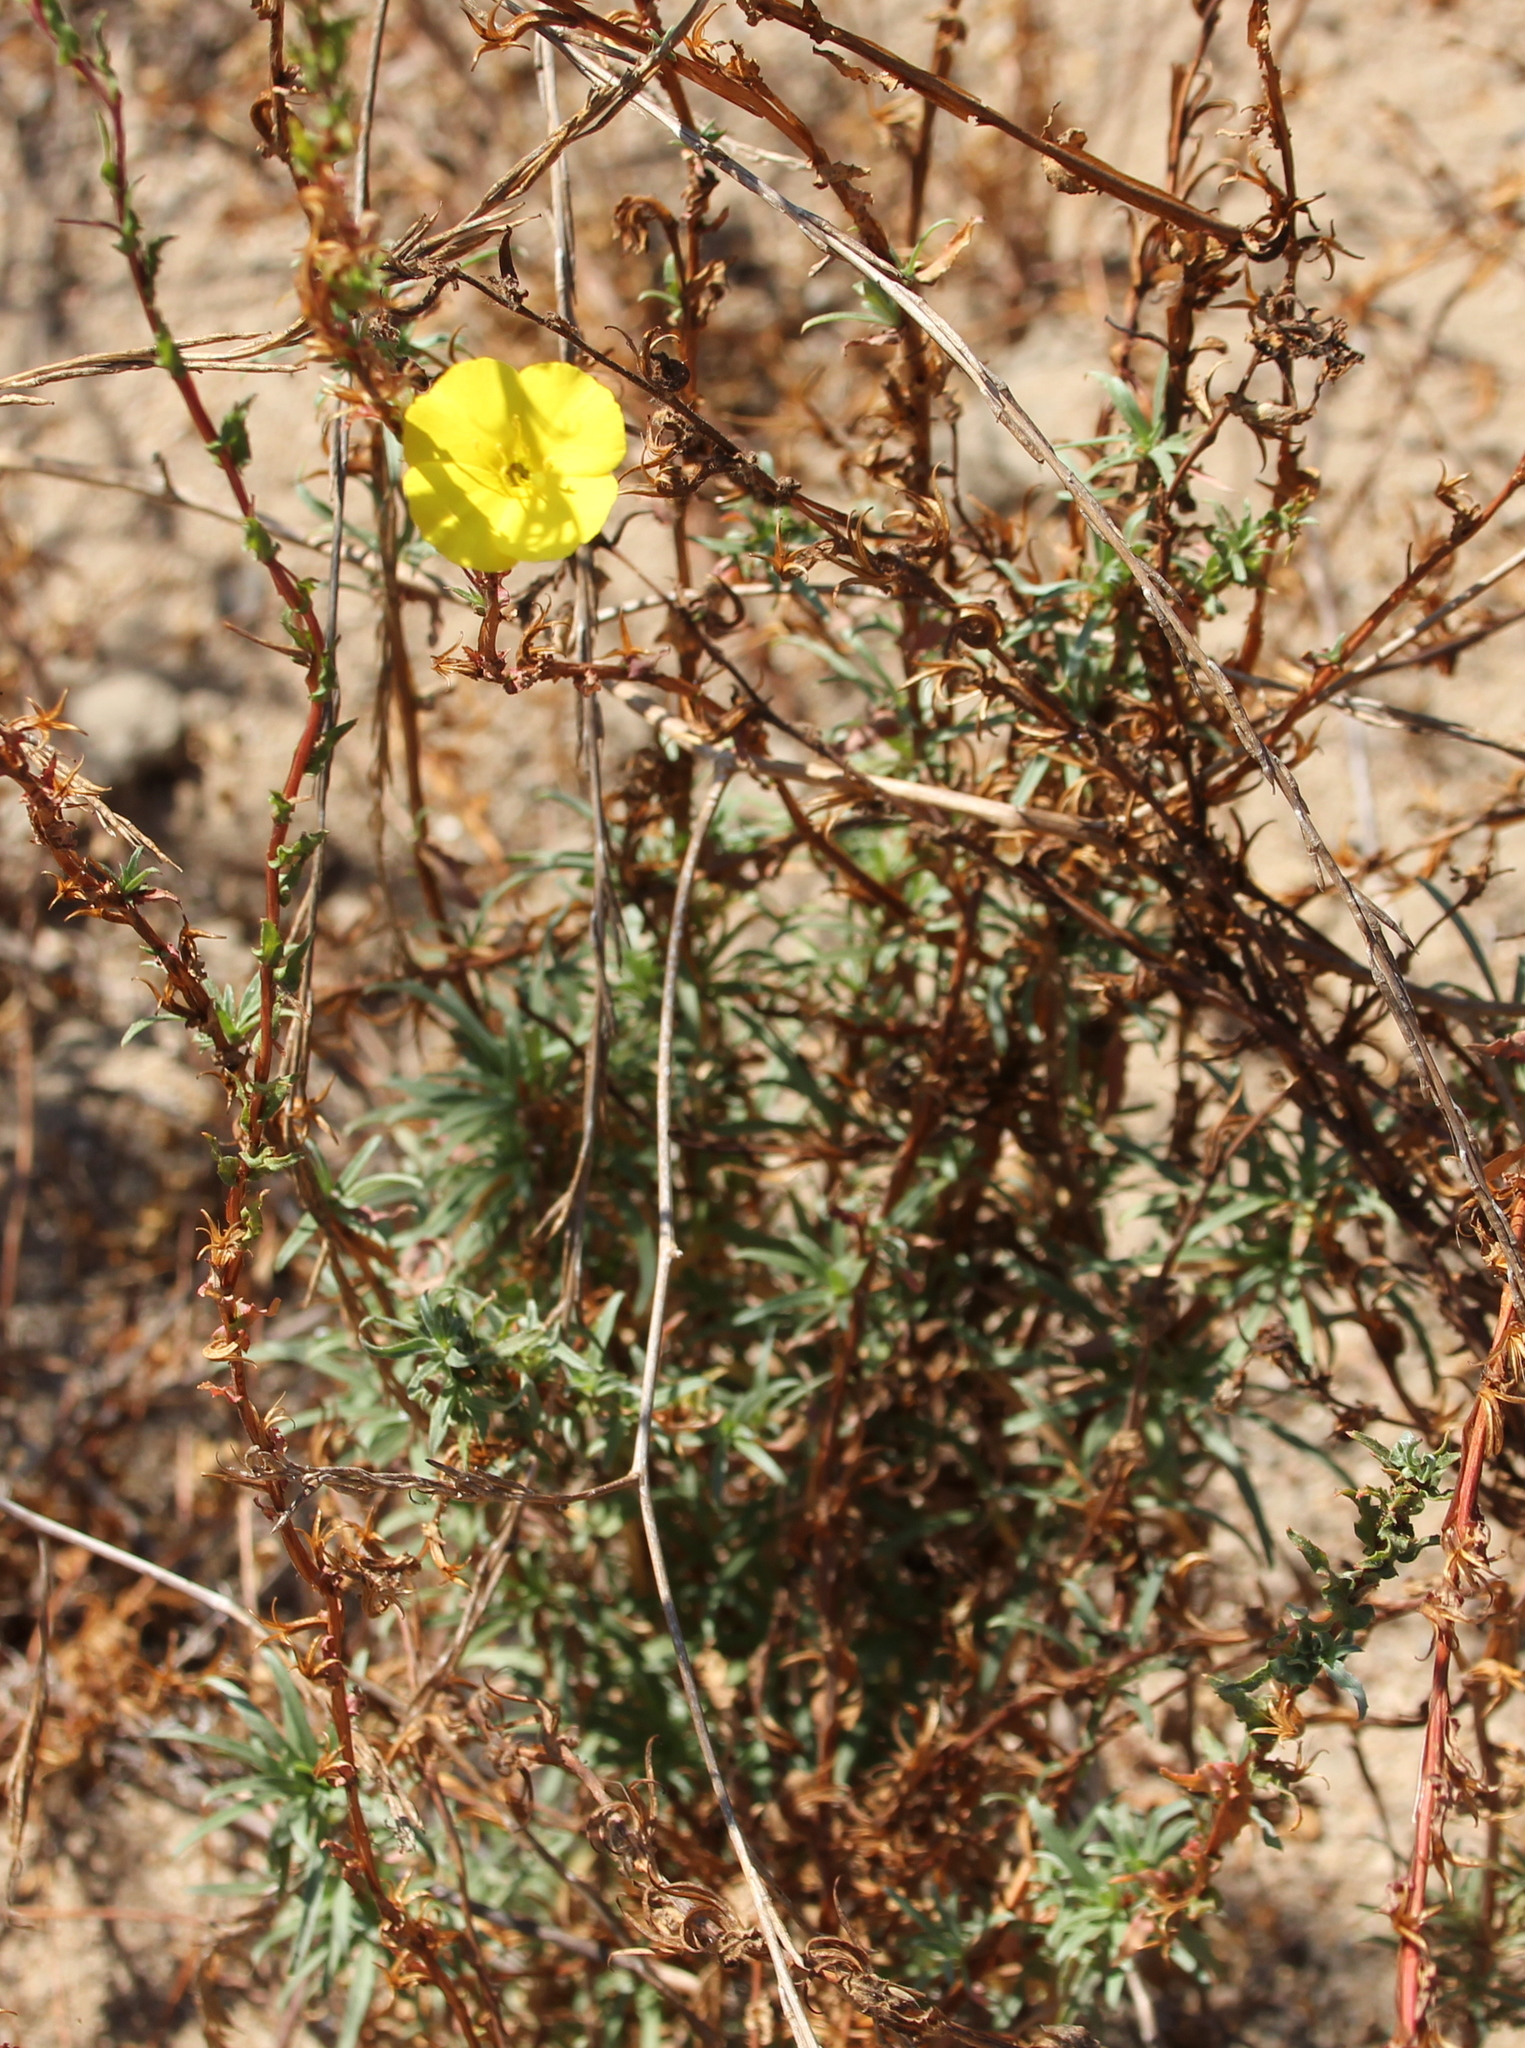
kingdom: Plantae
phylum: Tracheophyta
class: Magnoliopsida
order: Myrtales
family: Onagraceae
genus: Camissoniopsis
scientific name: Camissoniopsis bistorta
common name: Southern suncup
